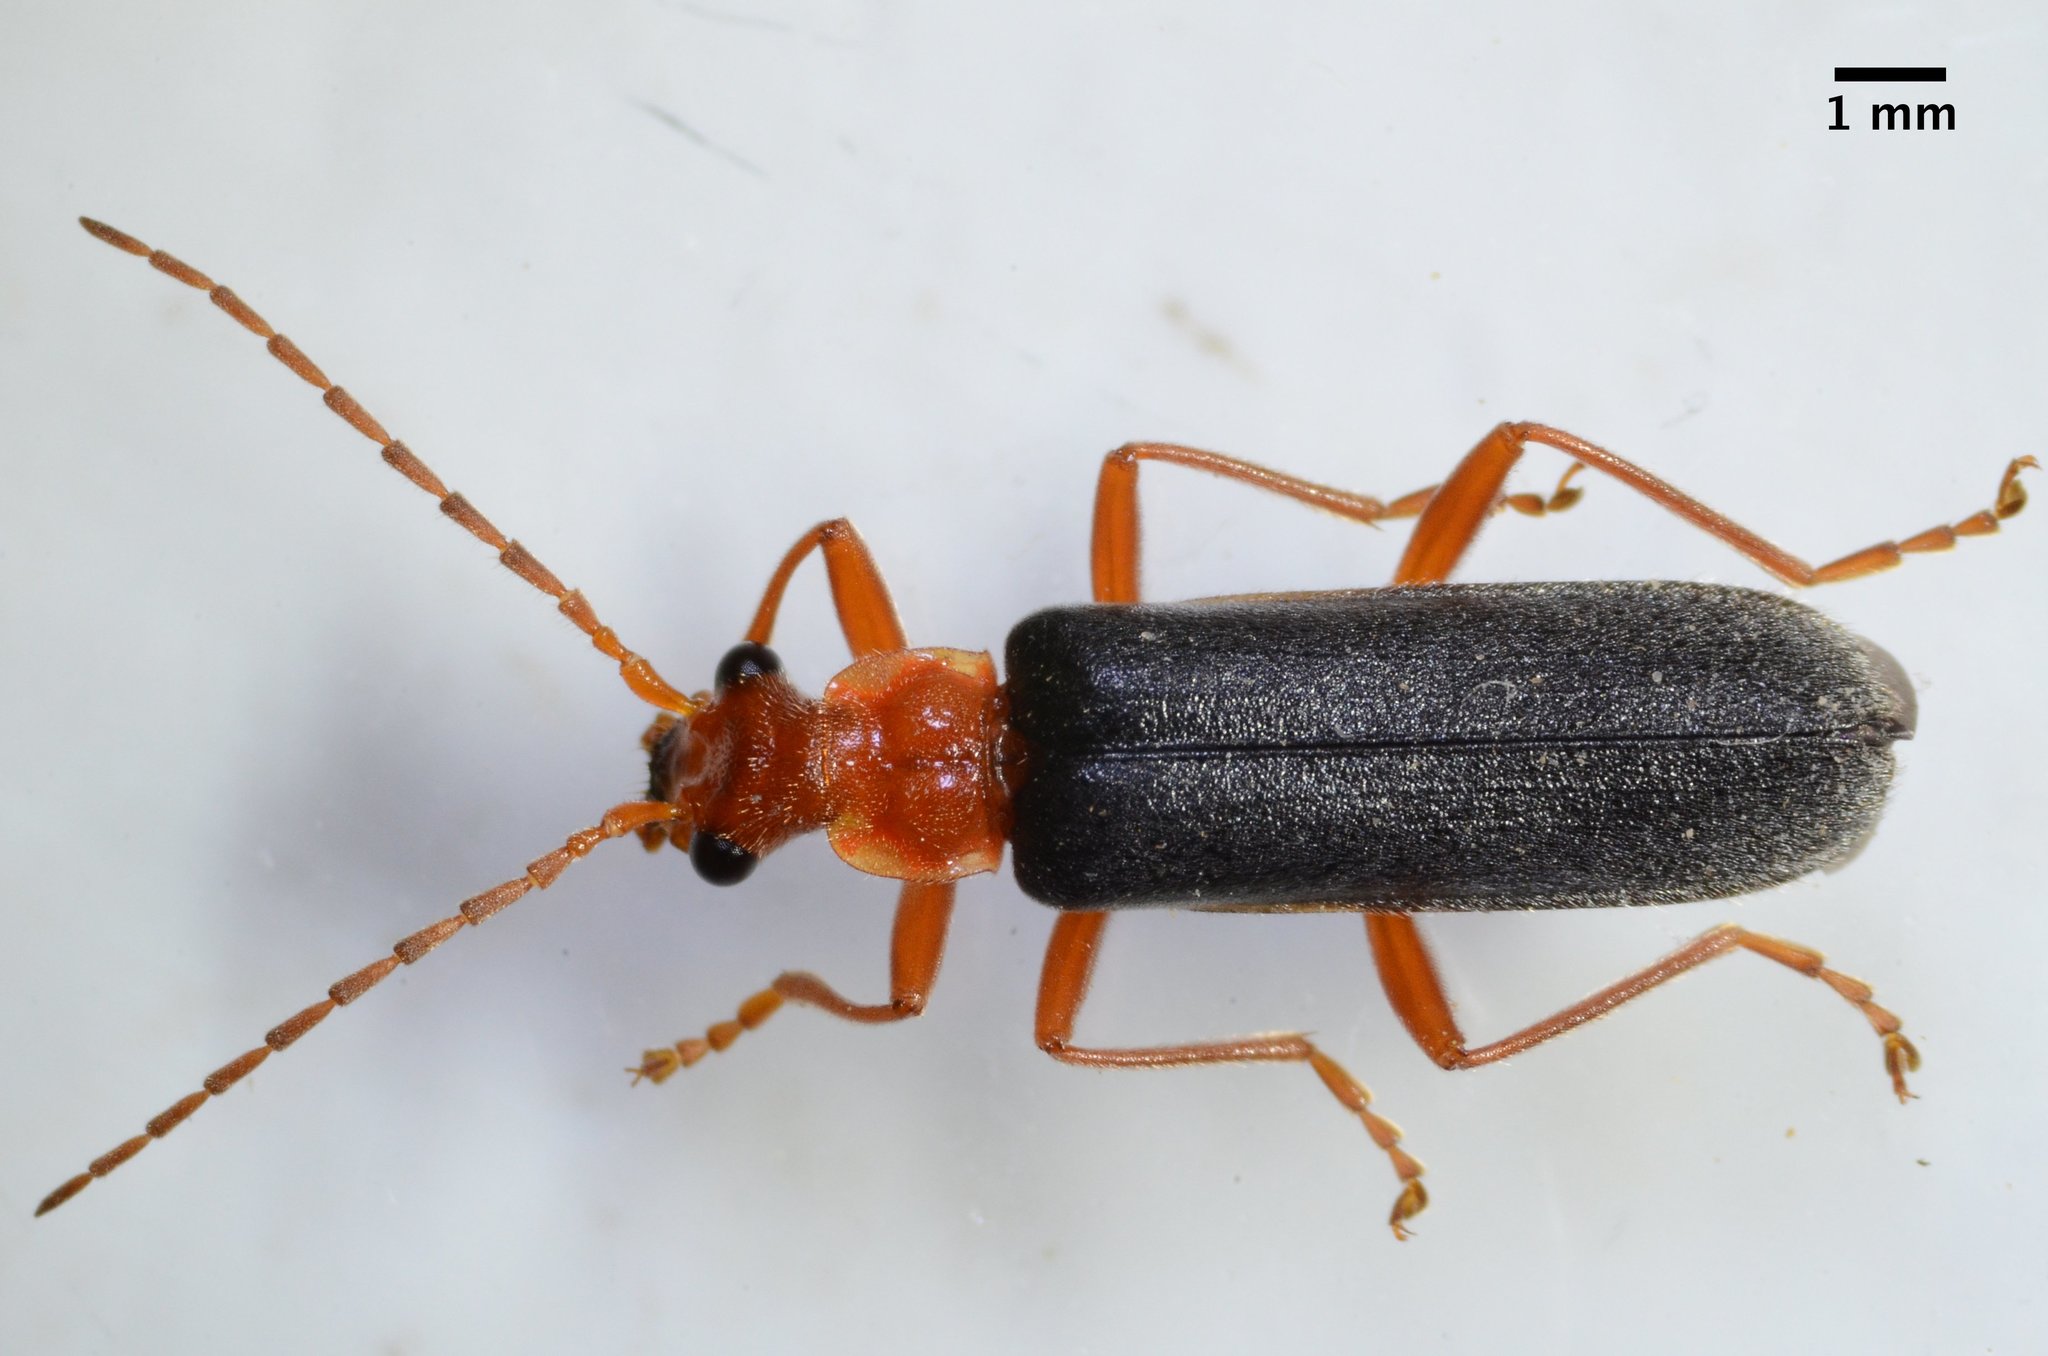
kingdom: Animalia
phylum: Arthropoda
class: Insecta
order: Coleoptera
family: Cantharidae
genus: Podabrus
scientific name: Podabrus pruinosus
